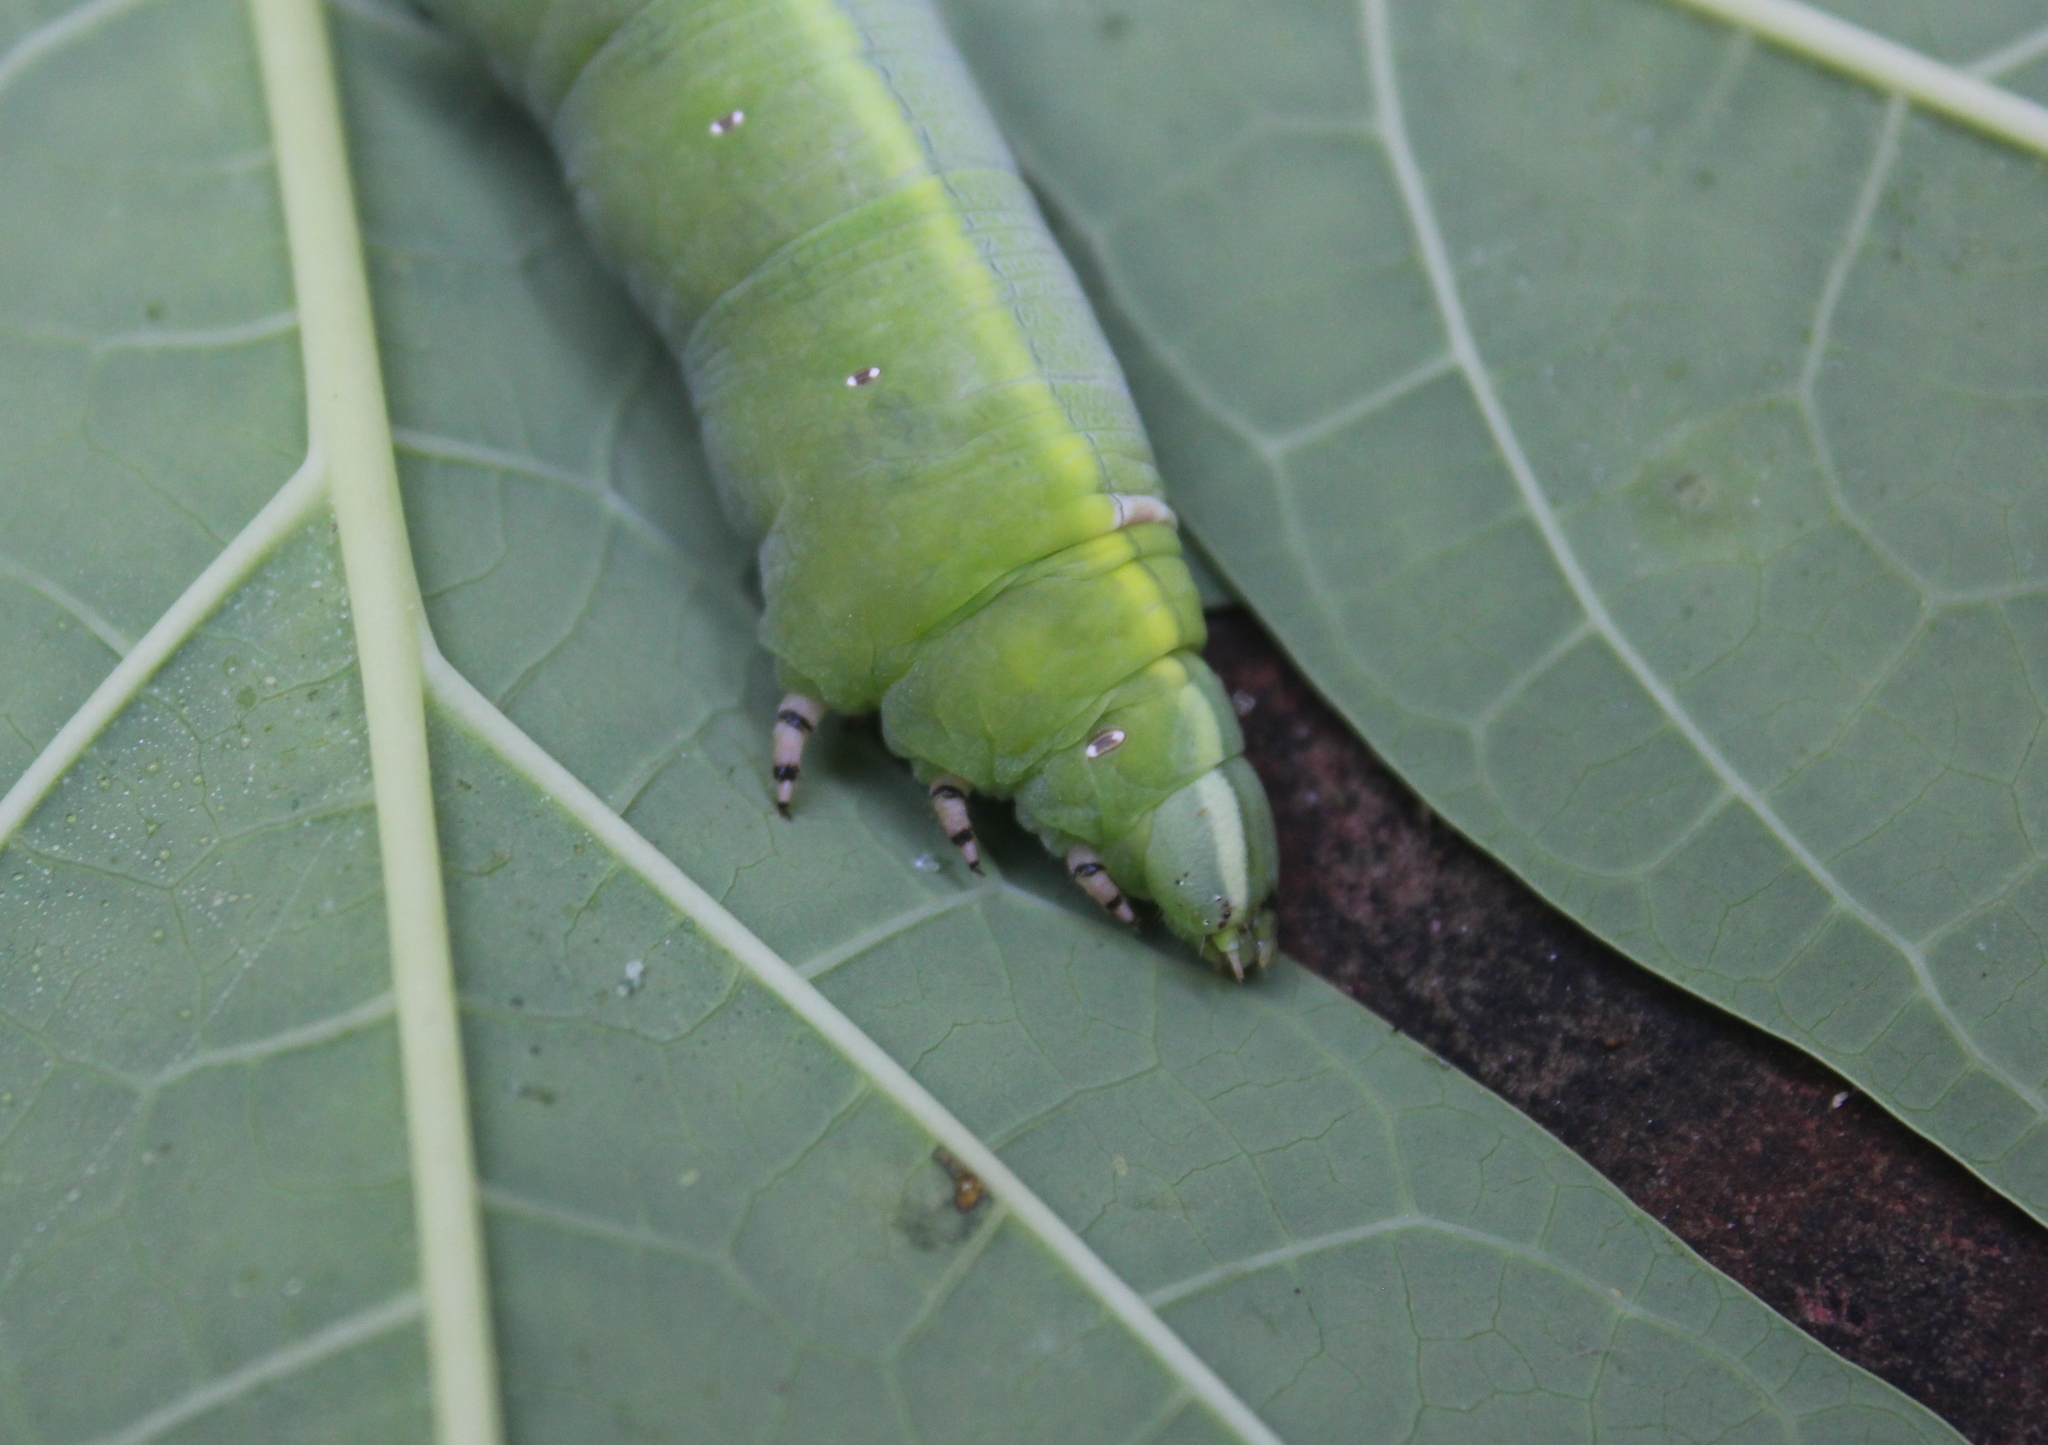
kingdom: Animalia
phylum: Arthropoda
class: Insecta
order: Lepidoptera
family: Sphingidae
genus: Erinnyis
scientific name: Erinnyis ello
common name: Ello sphinx
